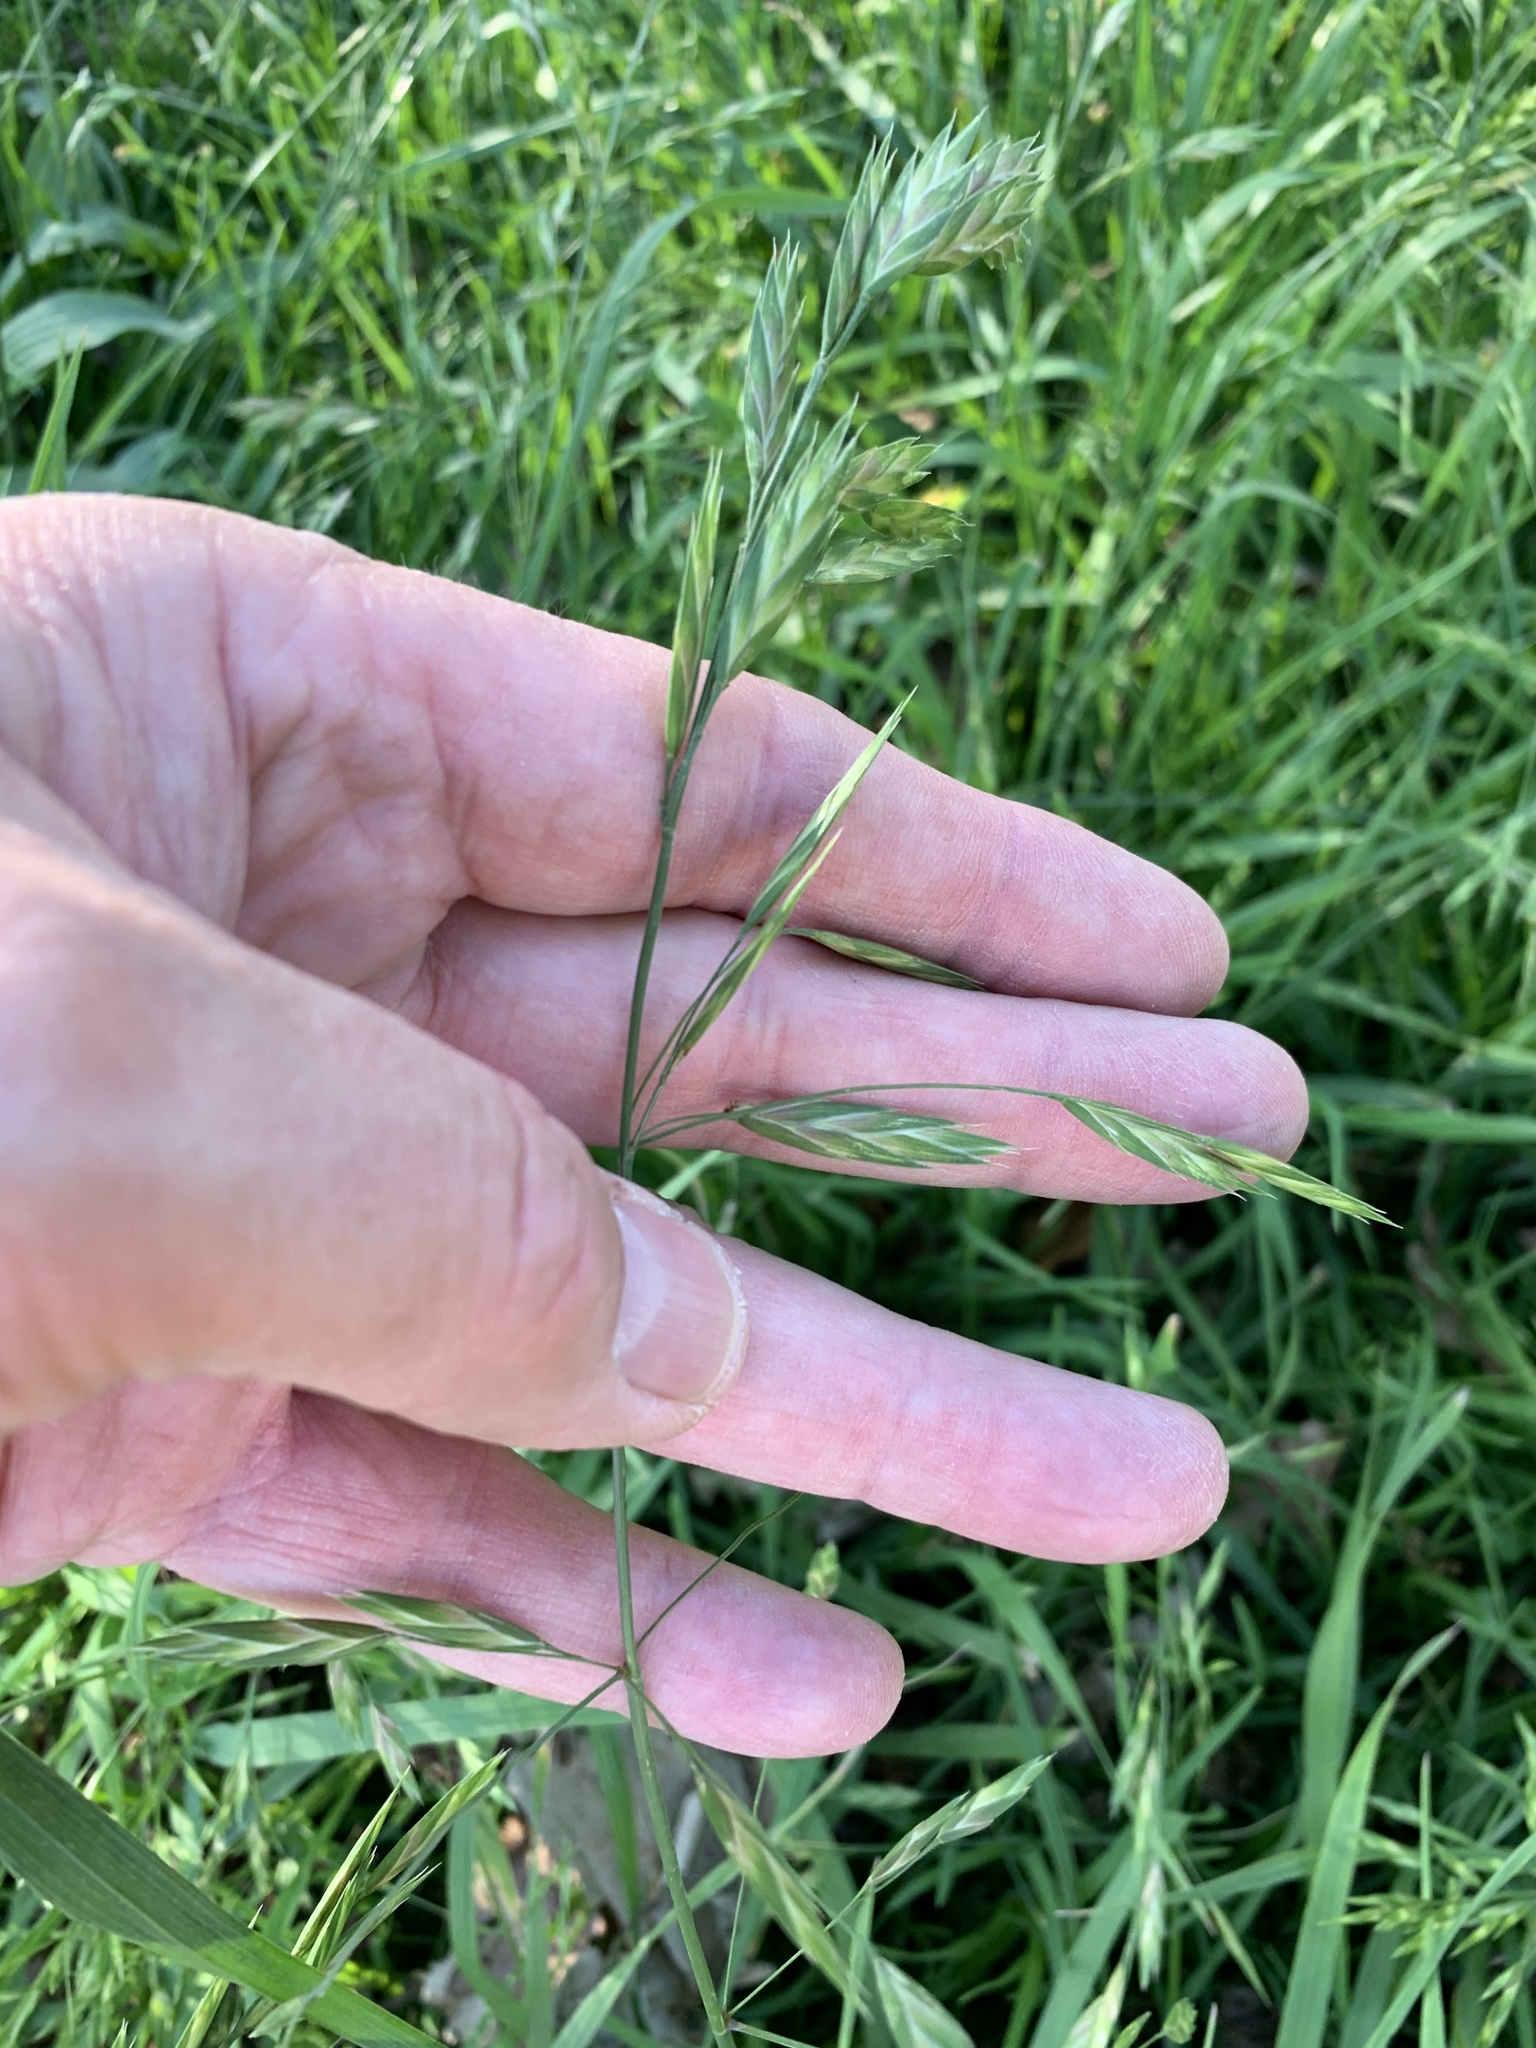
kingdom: Plantae
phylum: Tracheophyta
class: Liliopsida
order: Poales
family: Poaceae
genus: Bromus
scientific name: Bromus catharticus
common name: Rescuegrass
